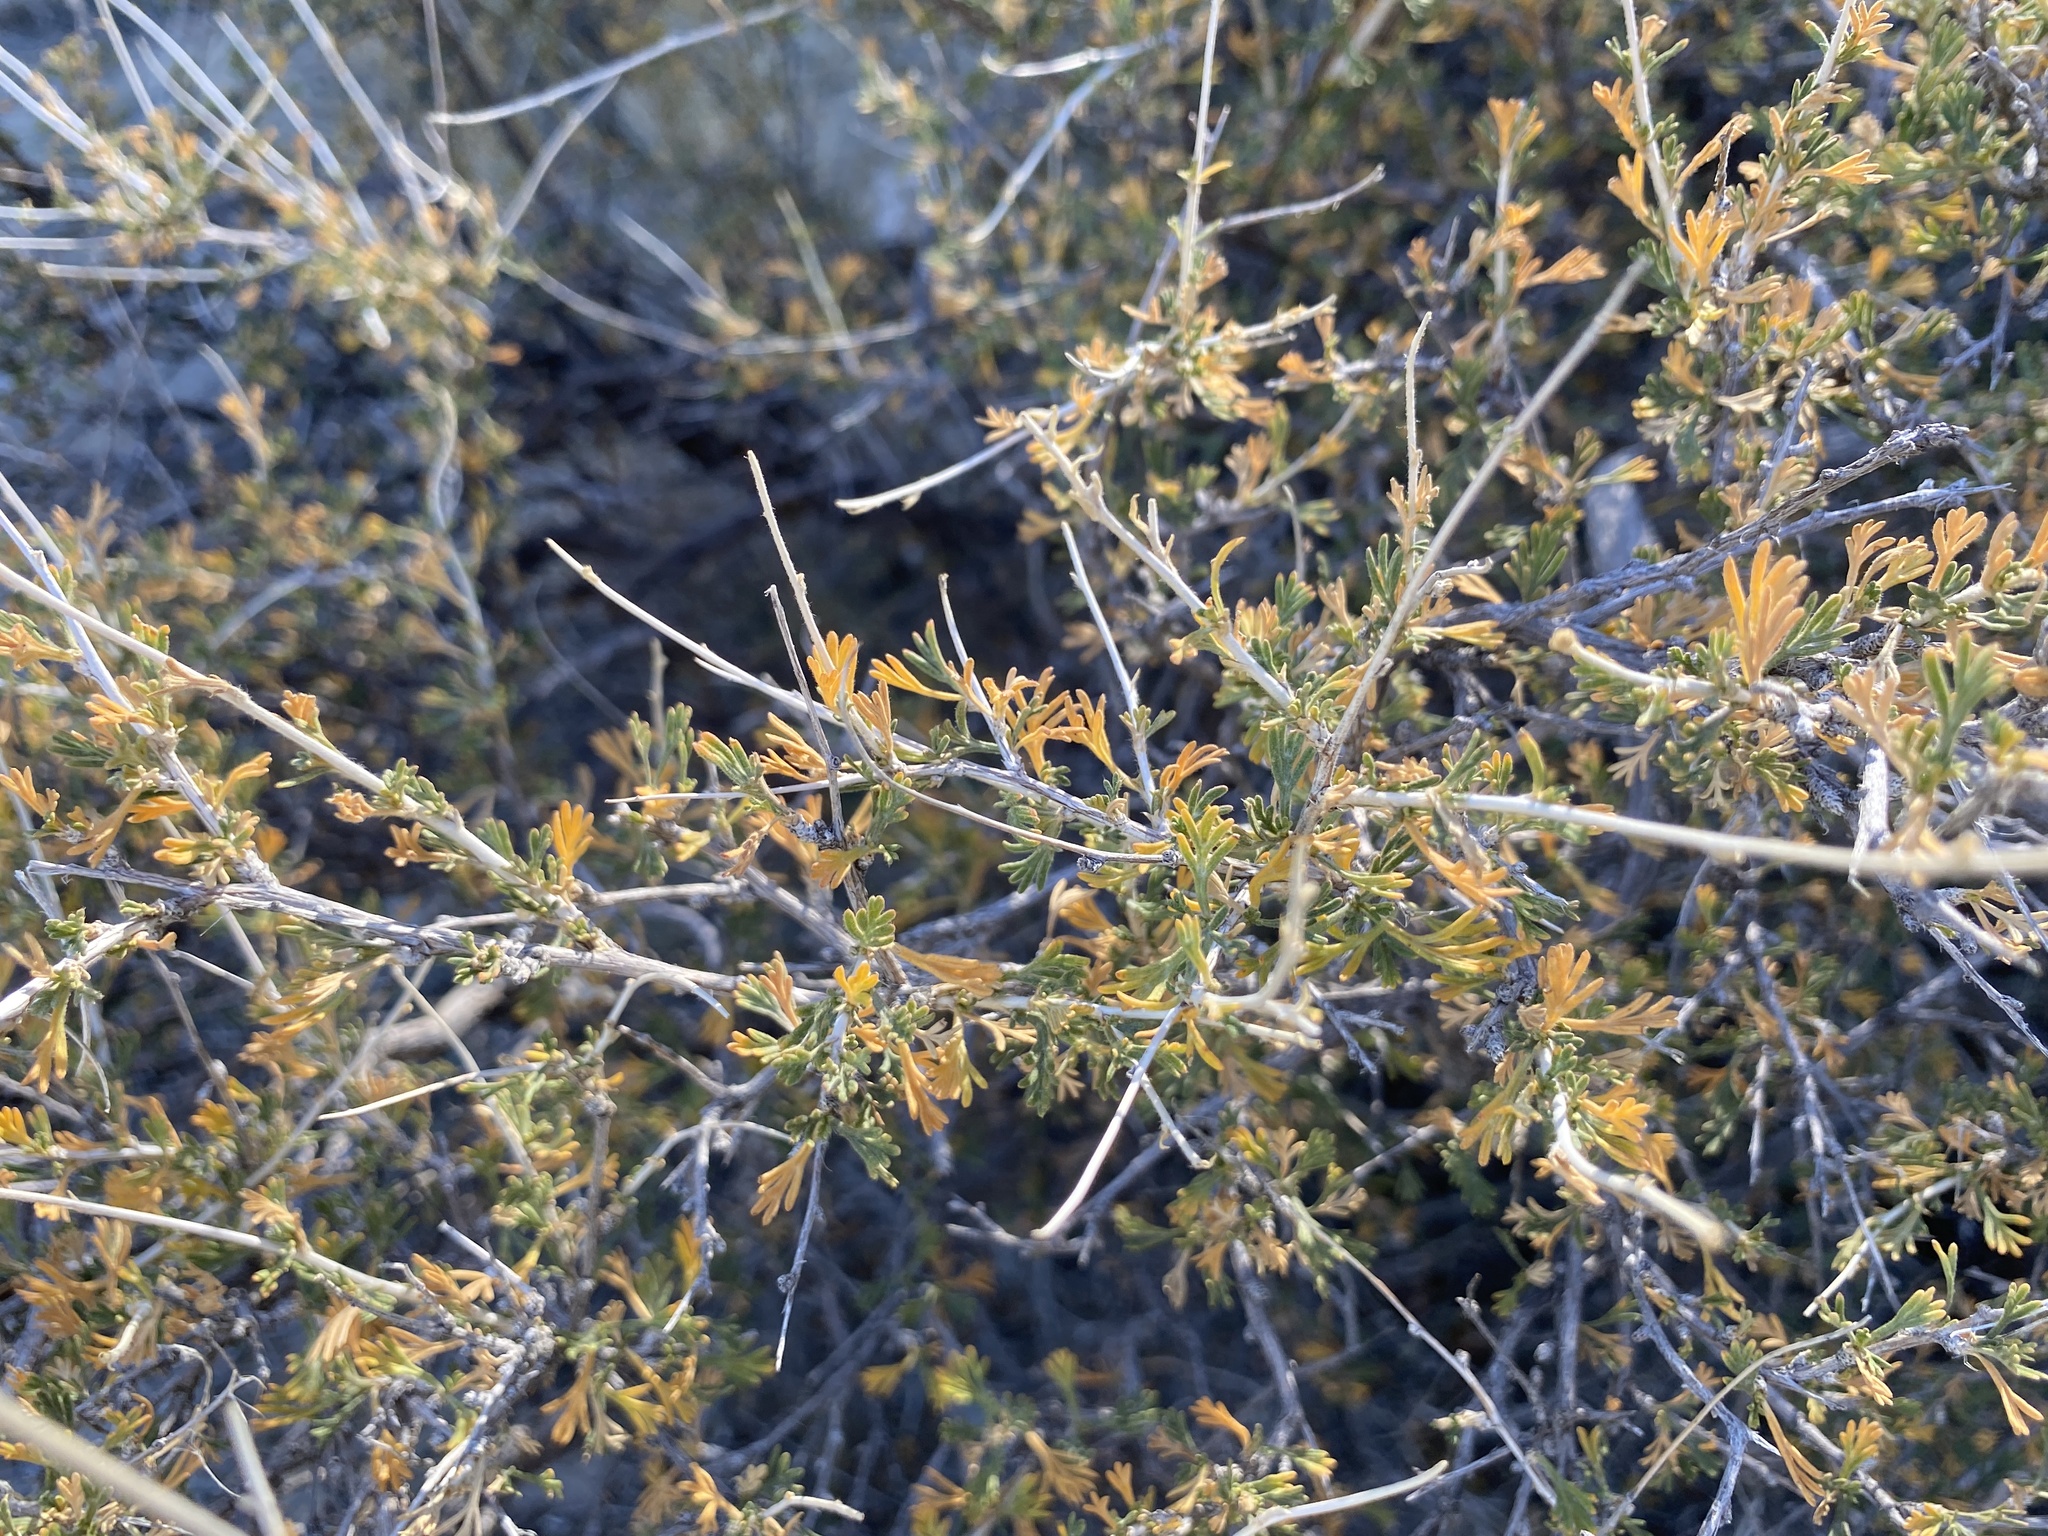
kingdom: Plantae
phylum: Tracheophyta
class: Magnoliopsida
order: Rosales
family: Rosaceae
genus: Fallugia
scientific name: Fallugia paradoxa
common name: Apache-plume
